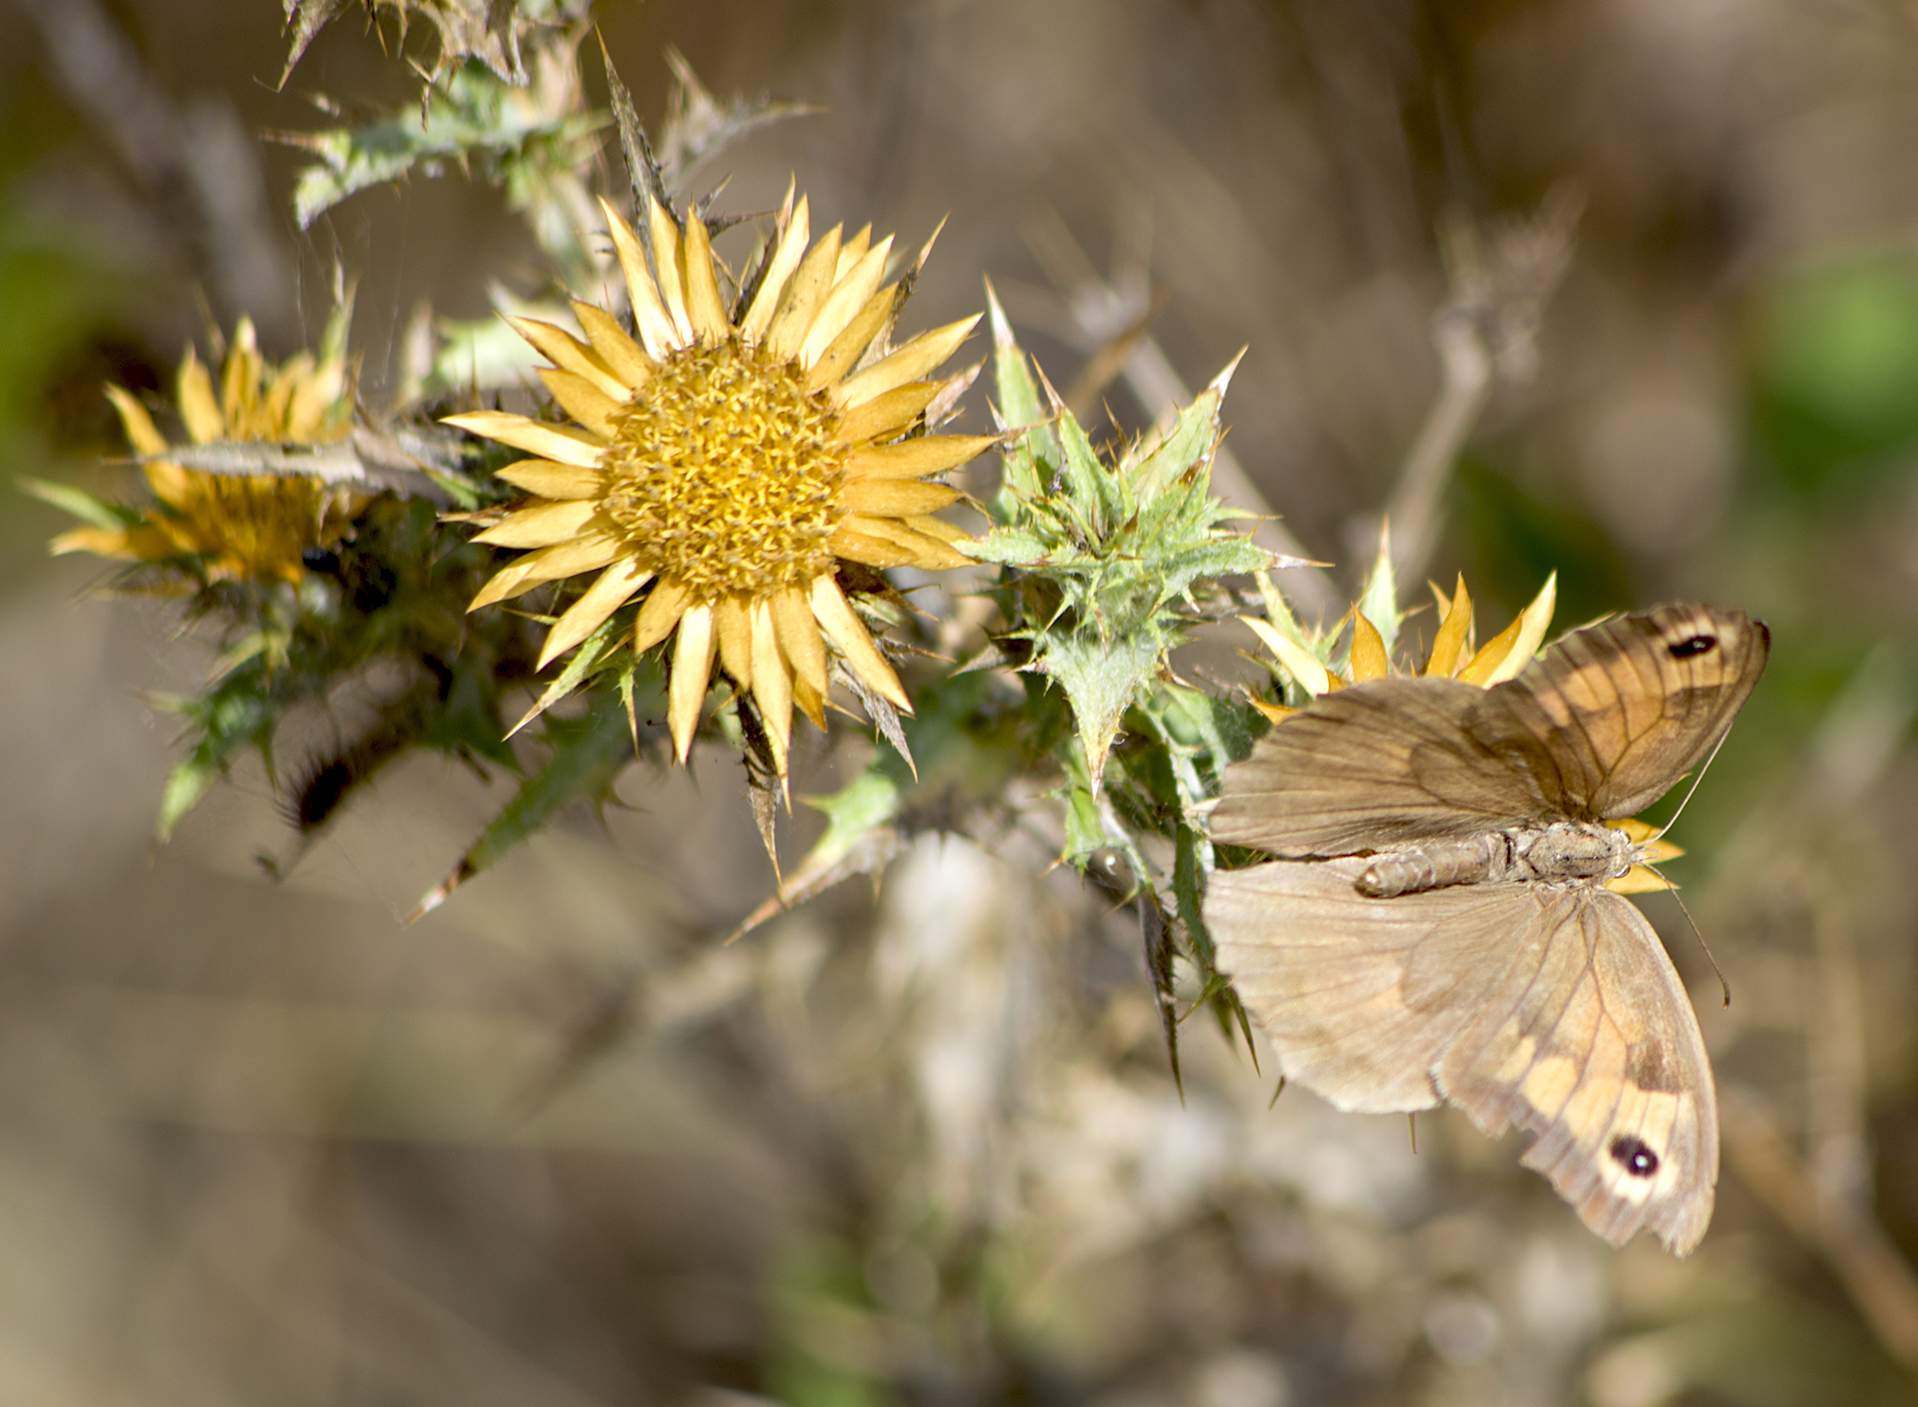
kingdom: Animalia
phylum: Arthropoda
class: Insecta
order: Lepidoptera
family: Nymphalidae
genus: Maniola
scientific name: Maniola jurtina
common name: Meadow brown
